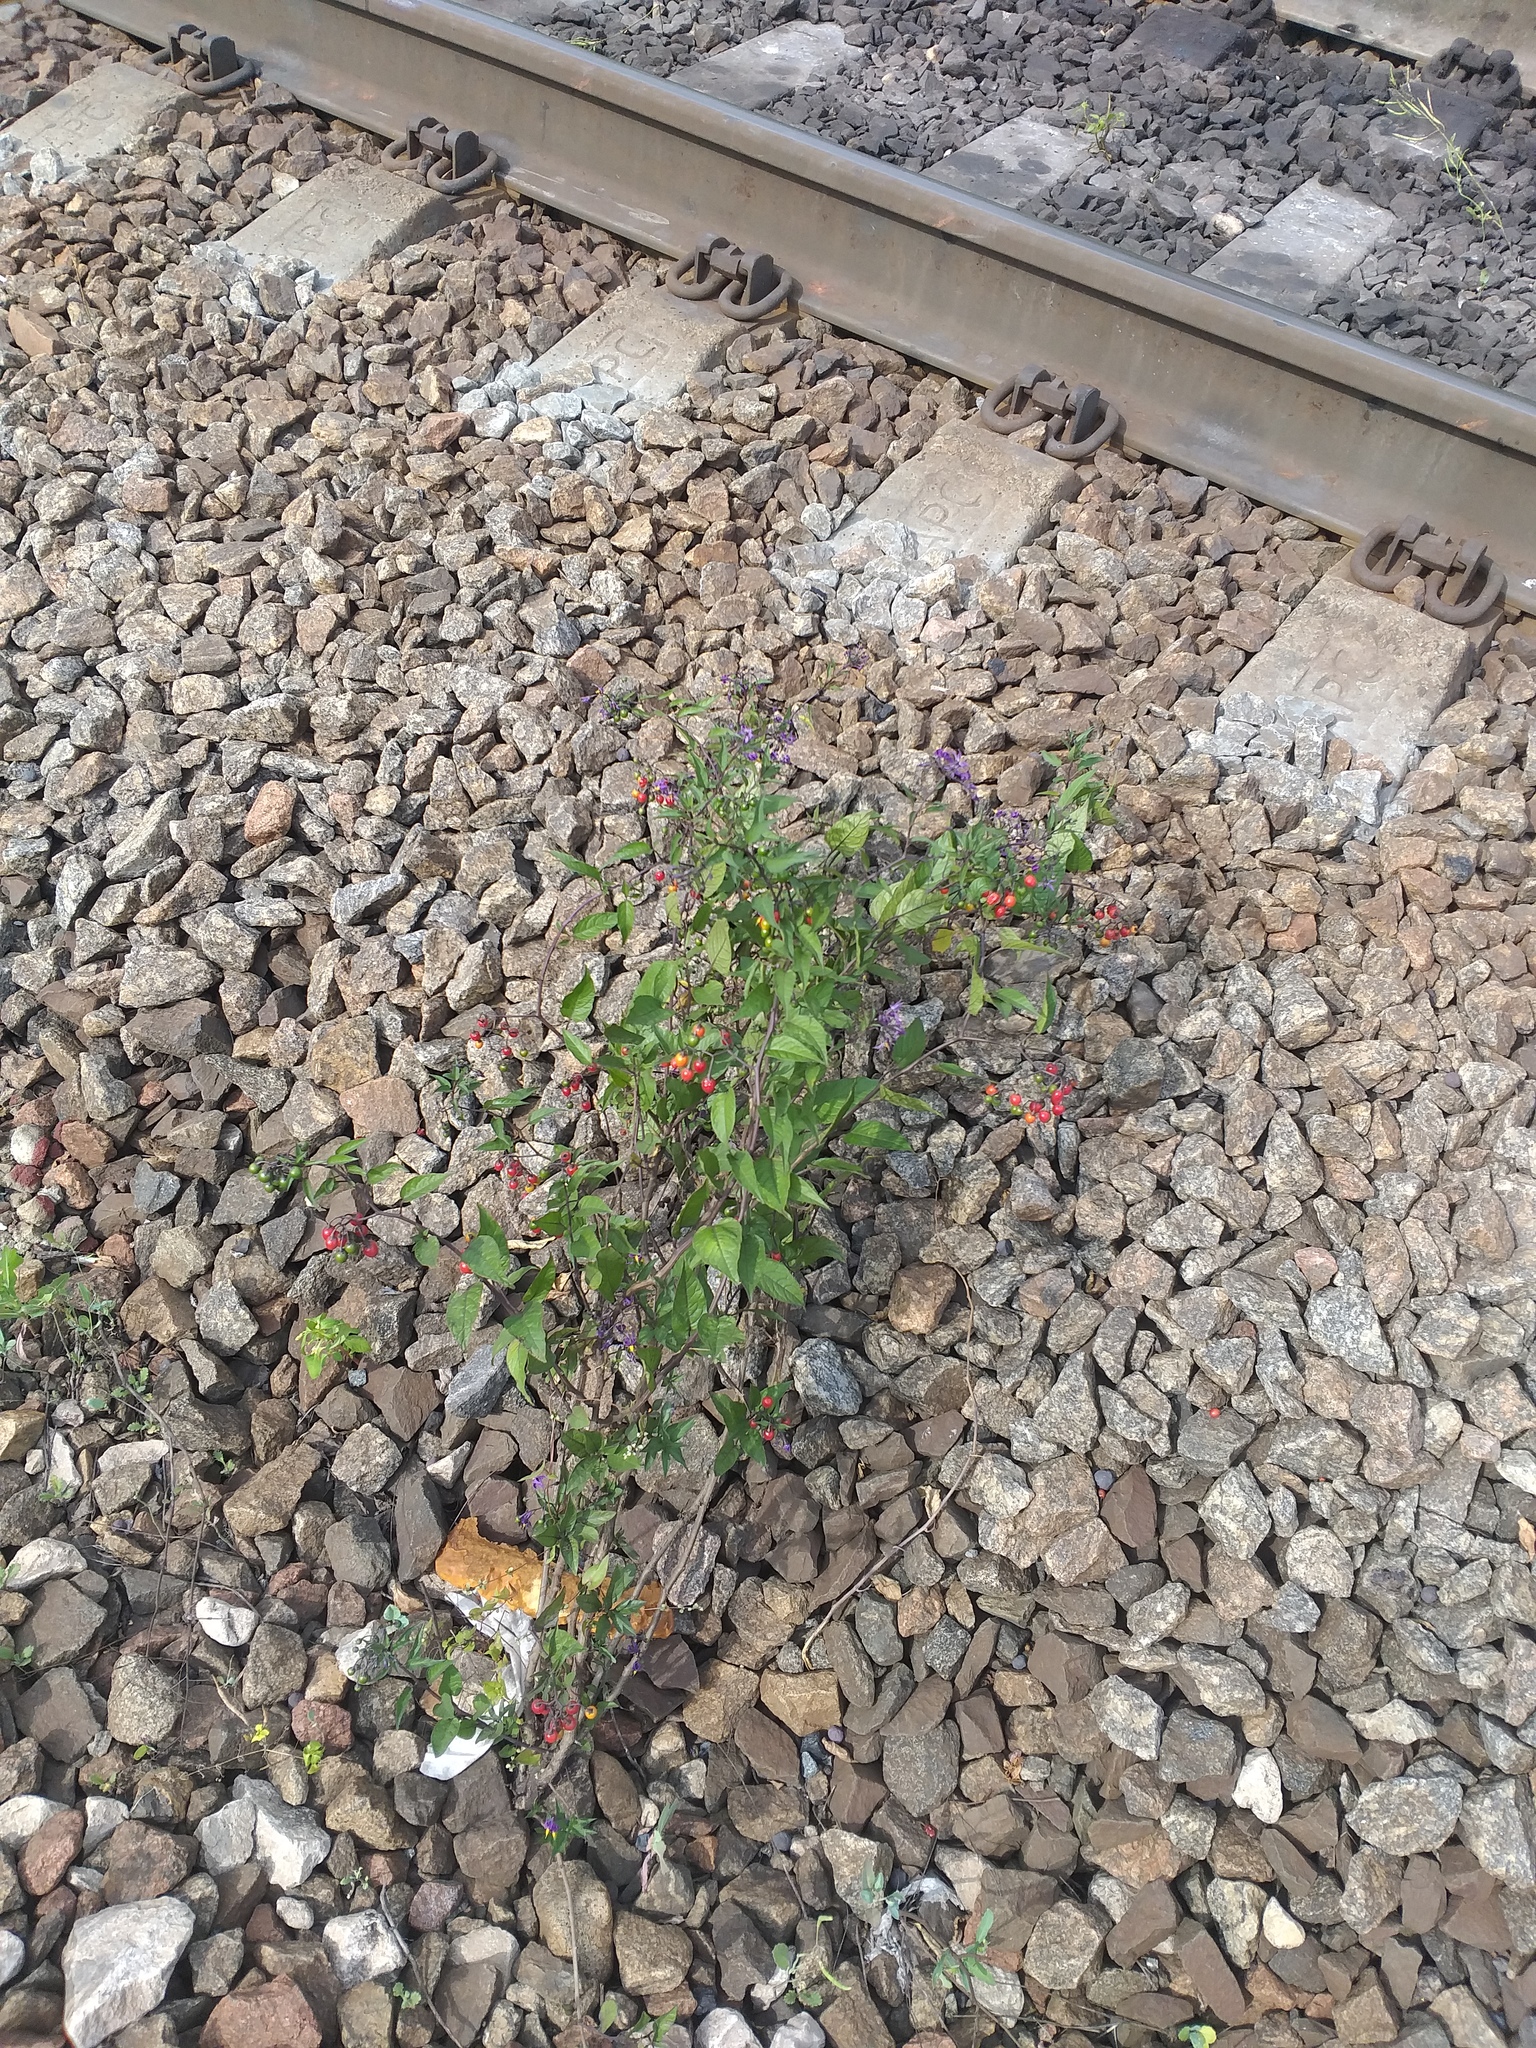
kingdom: Plantae
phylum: Tracheophyta
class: Magnoliopsida
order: Solanales
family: Solanaceae
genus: Solanum
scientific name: Solanum dulcamara
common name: Climbing nightshade
